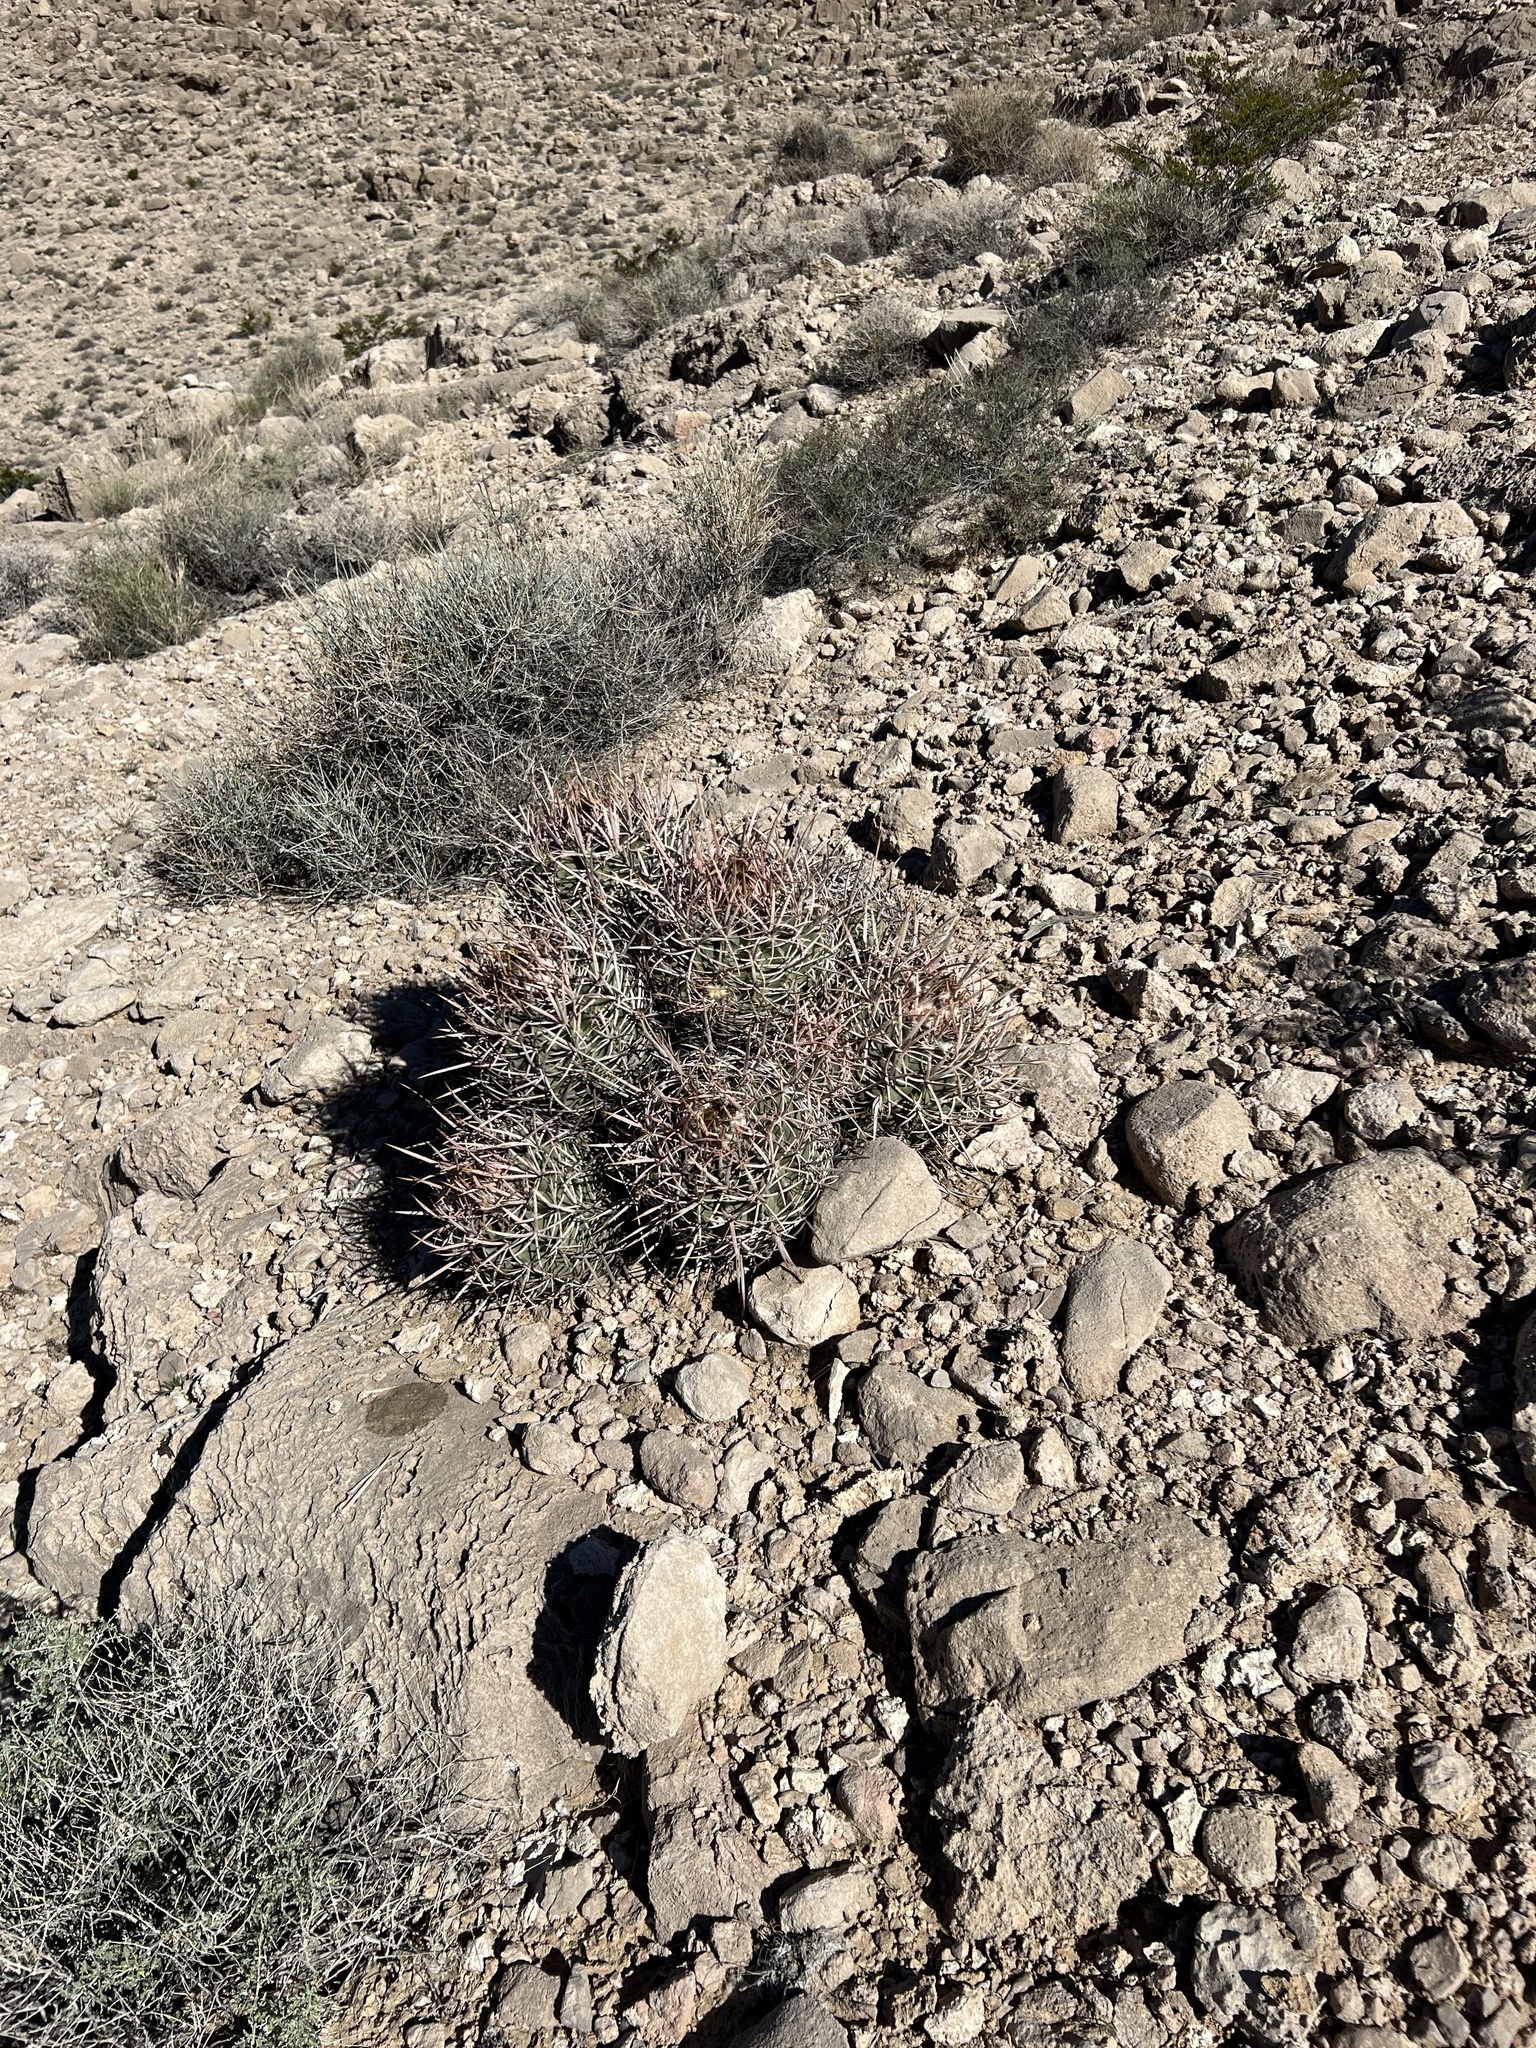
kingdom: Plantae
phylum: Tracheophyta
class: Magnoliopsida
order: Caryophyllales
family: Cactaceae
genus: Echinocactus
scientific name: Echinocactus polycephalus
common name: Cottontop cactus
